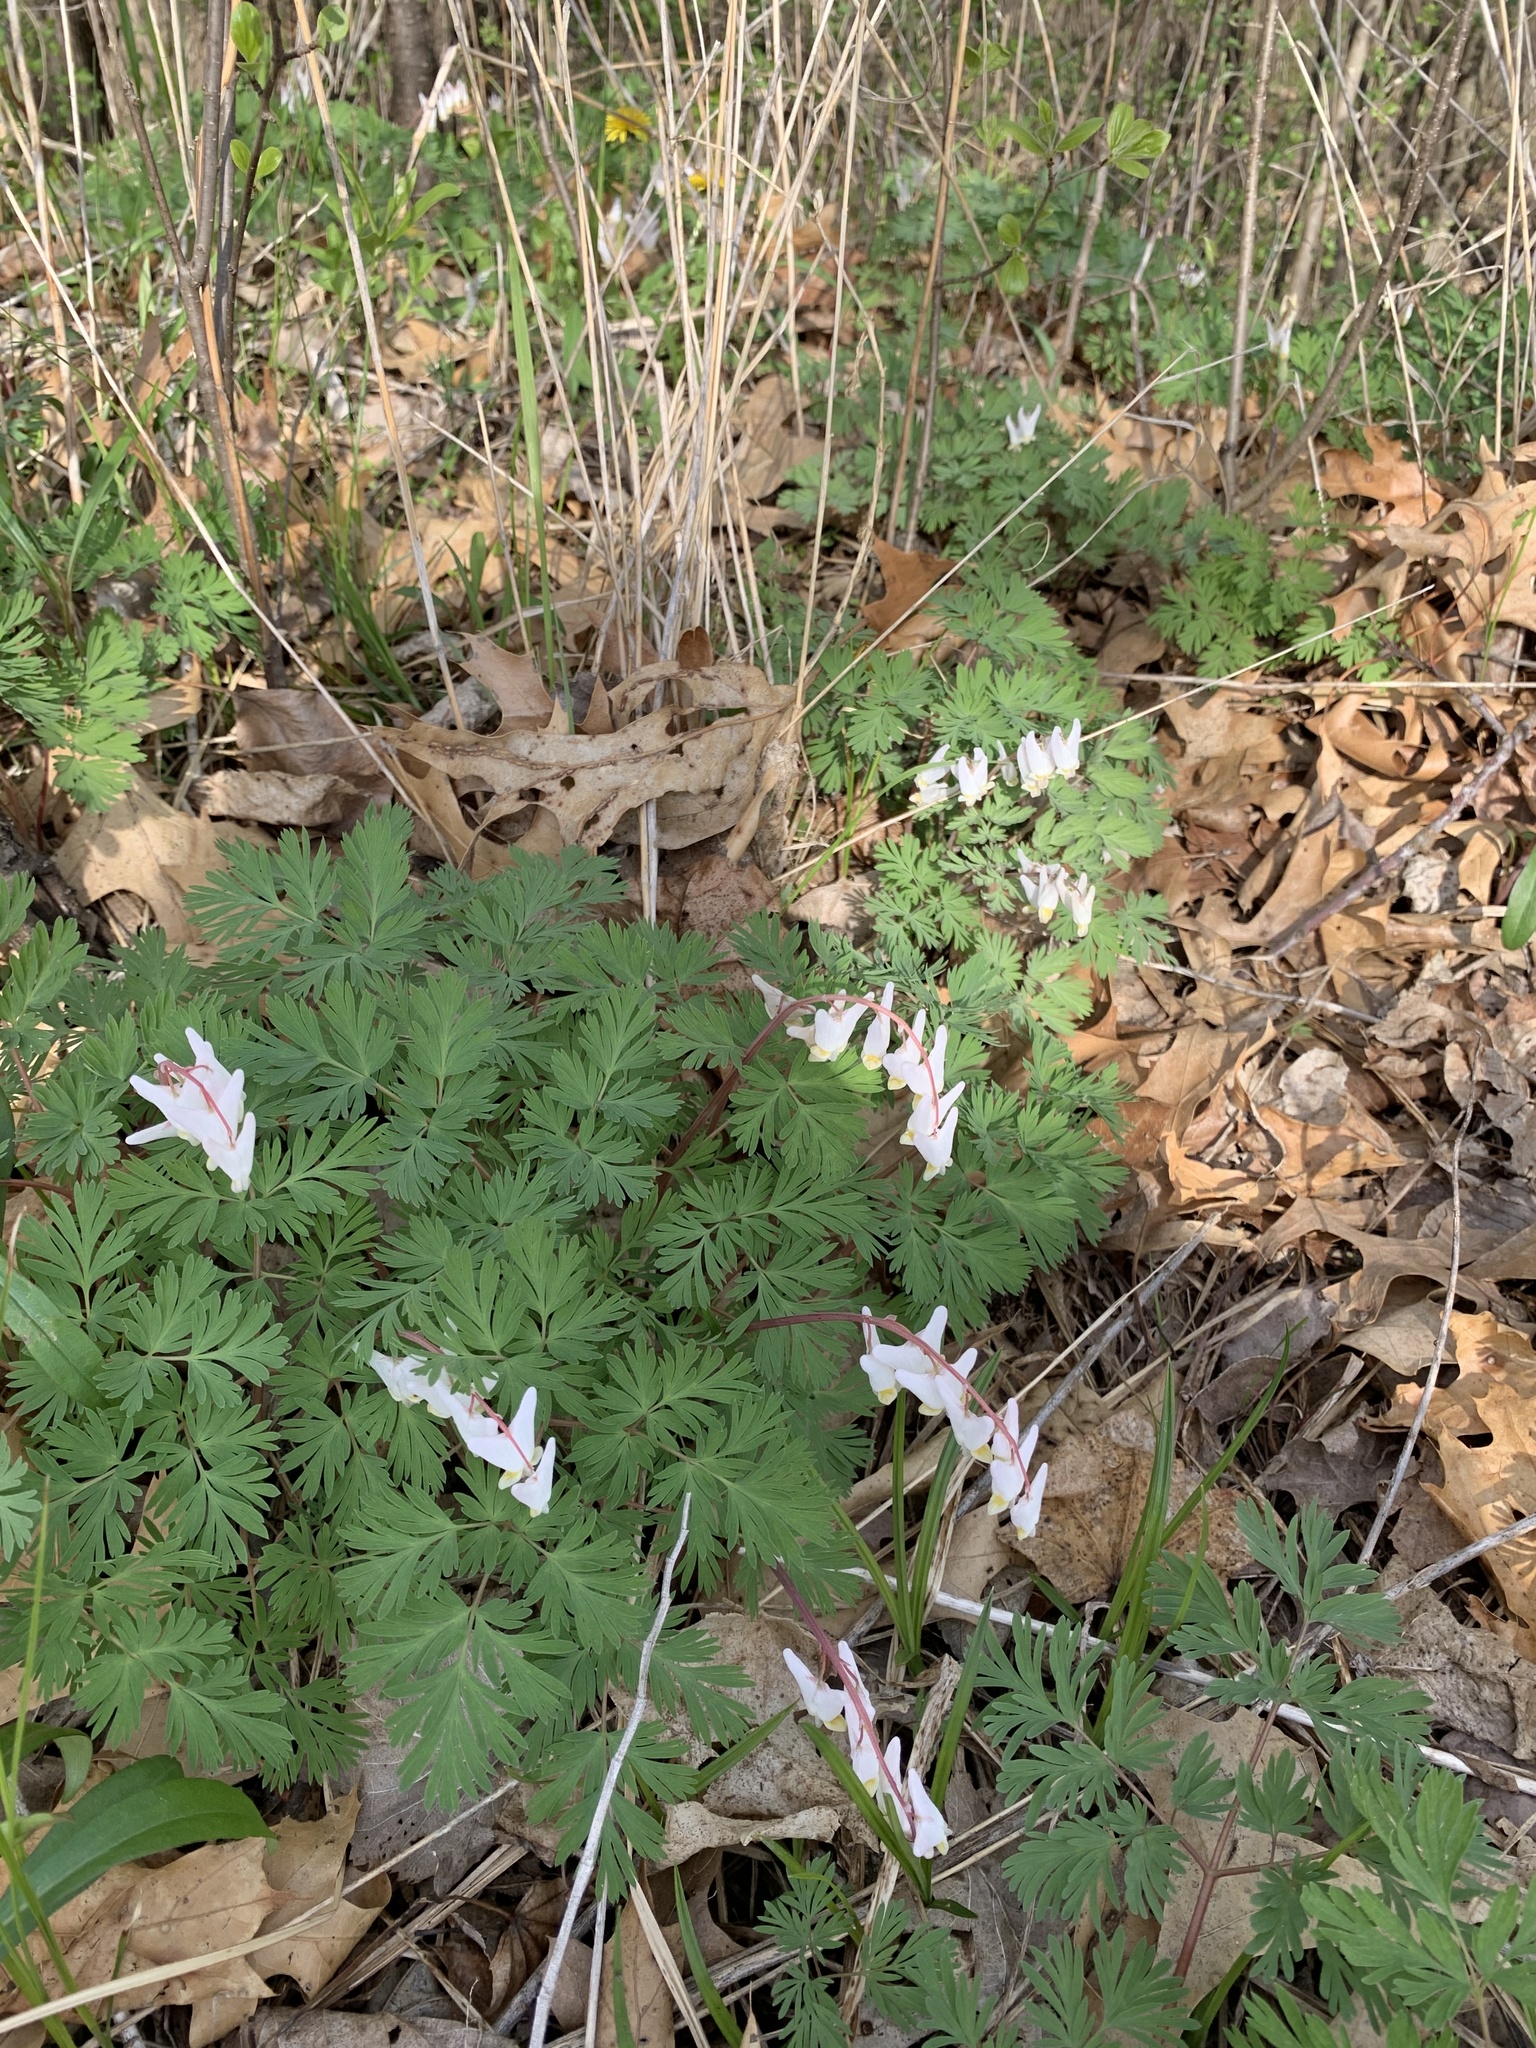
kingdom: Plantae
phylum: Tracheophyta
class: Magnoliopsida
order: Ranunculales
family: Papaveraceae
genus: Dicentra
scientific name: Dicentra cucullaria
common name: Dutchman's breeches
